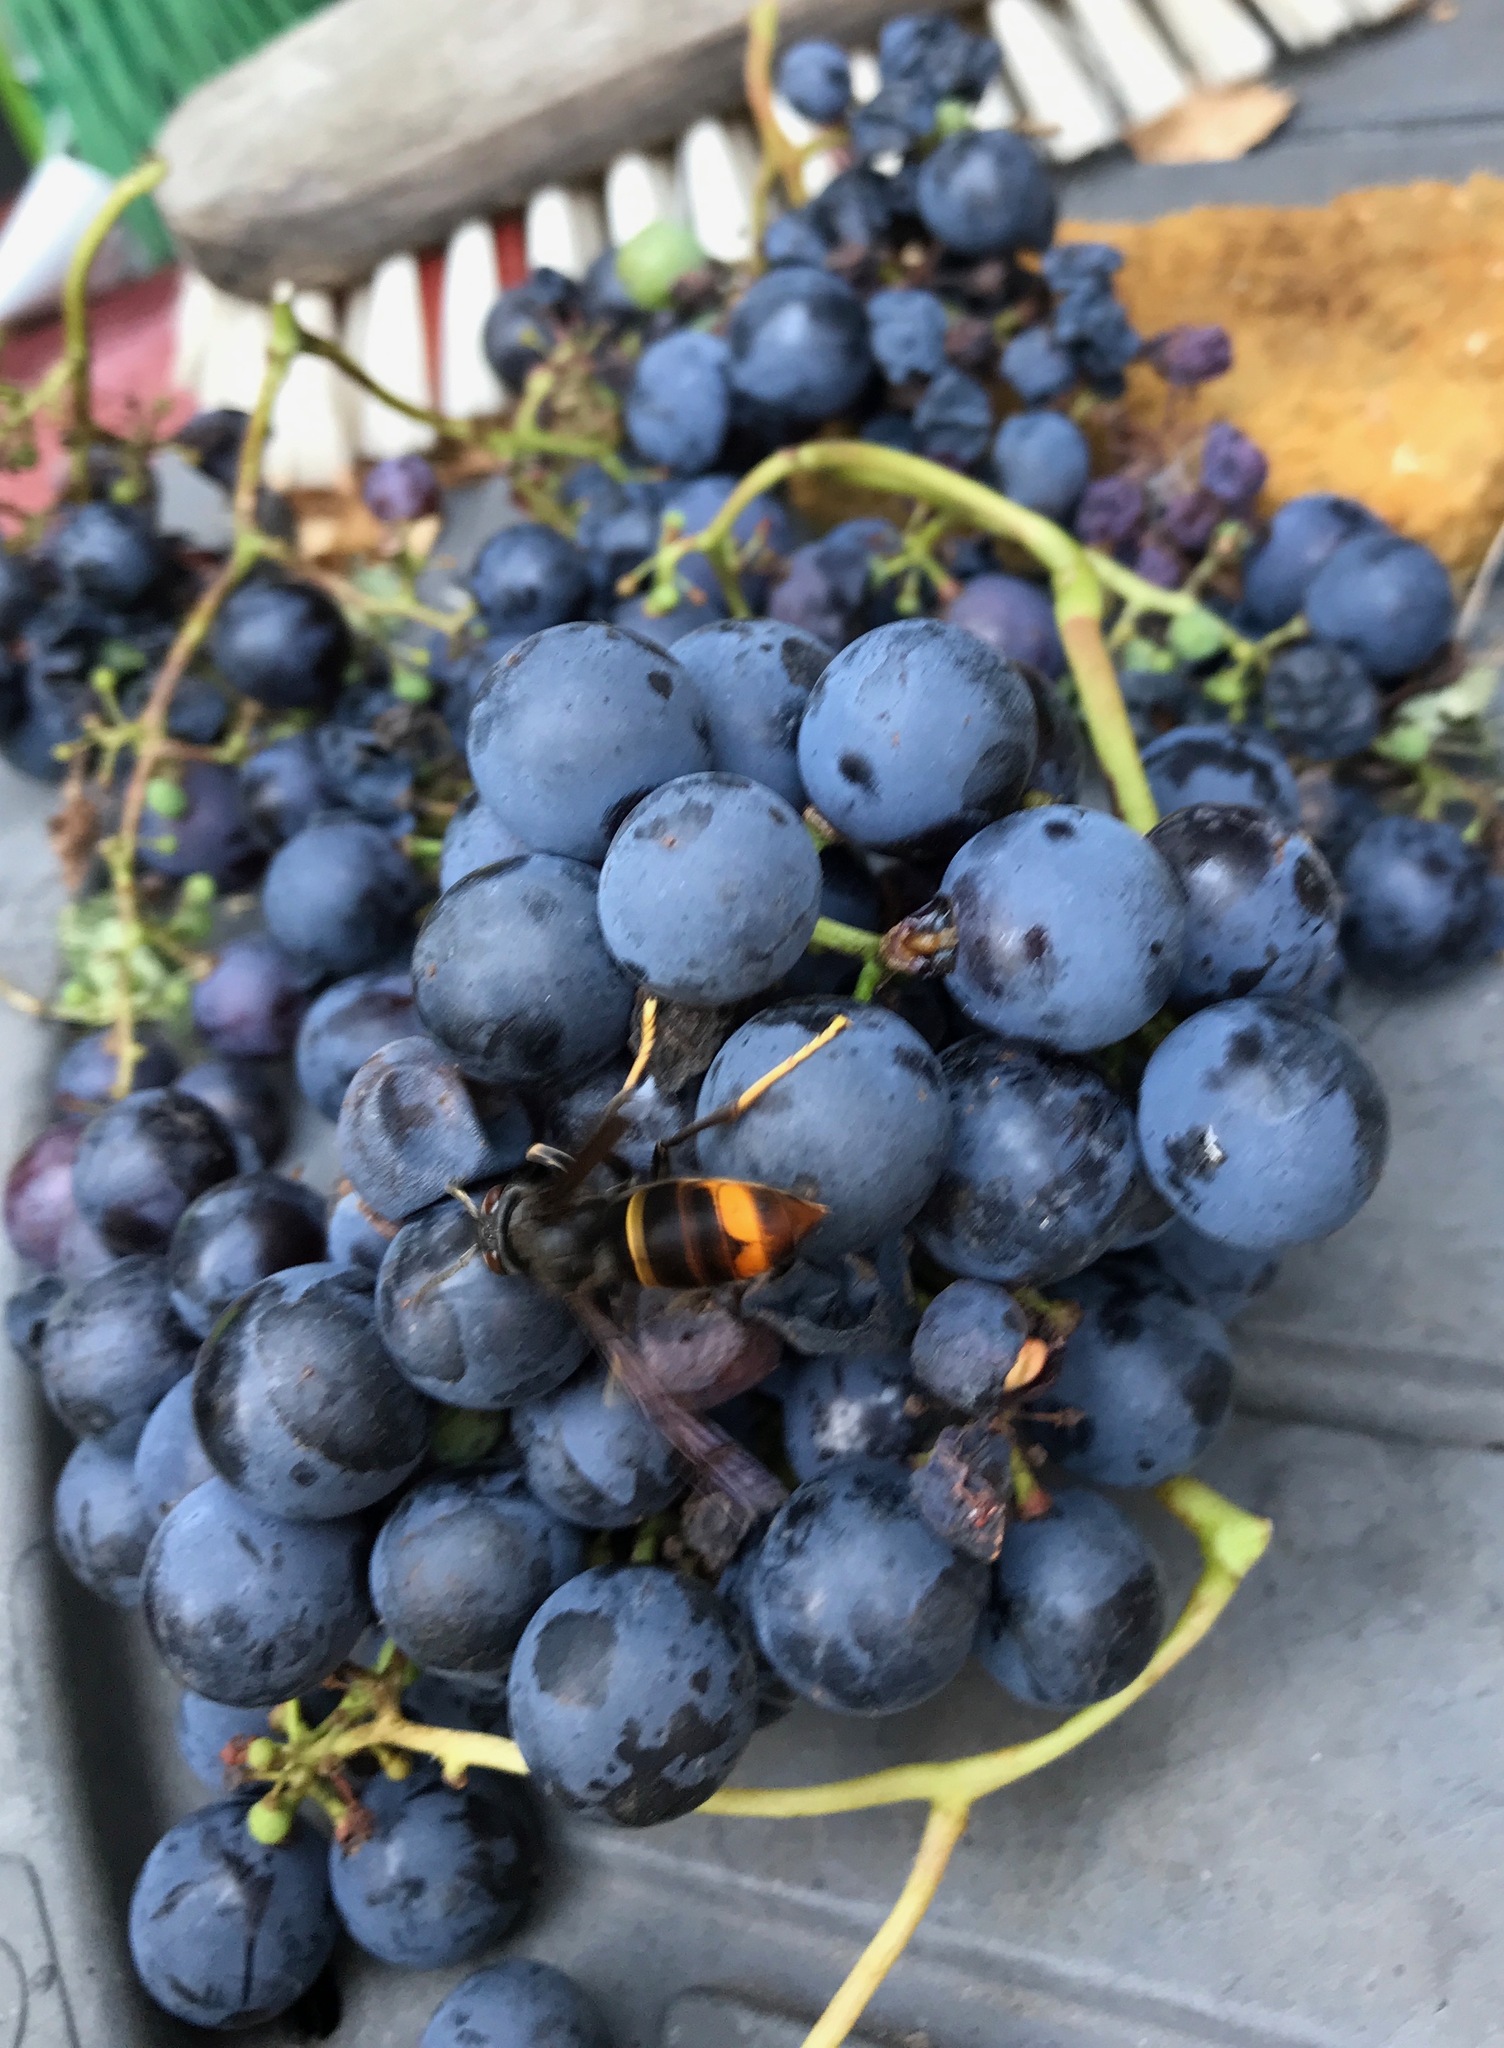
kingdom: Animalia
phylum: Arthropoda
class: Insecta
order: Hymenoptera
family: Vespidae
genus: Vespa
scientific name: Vespa velutina
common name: Asian hornet
